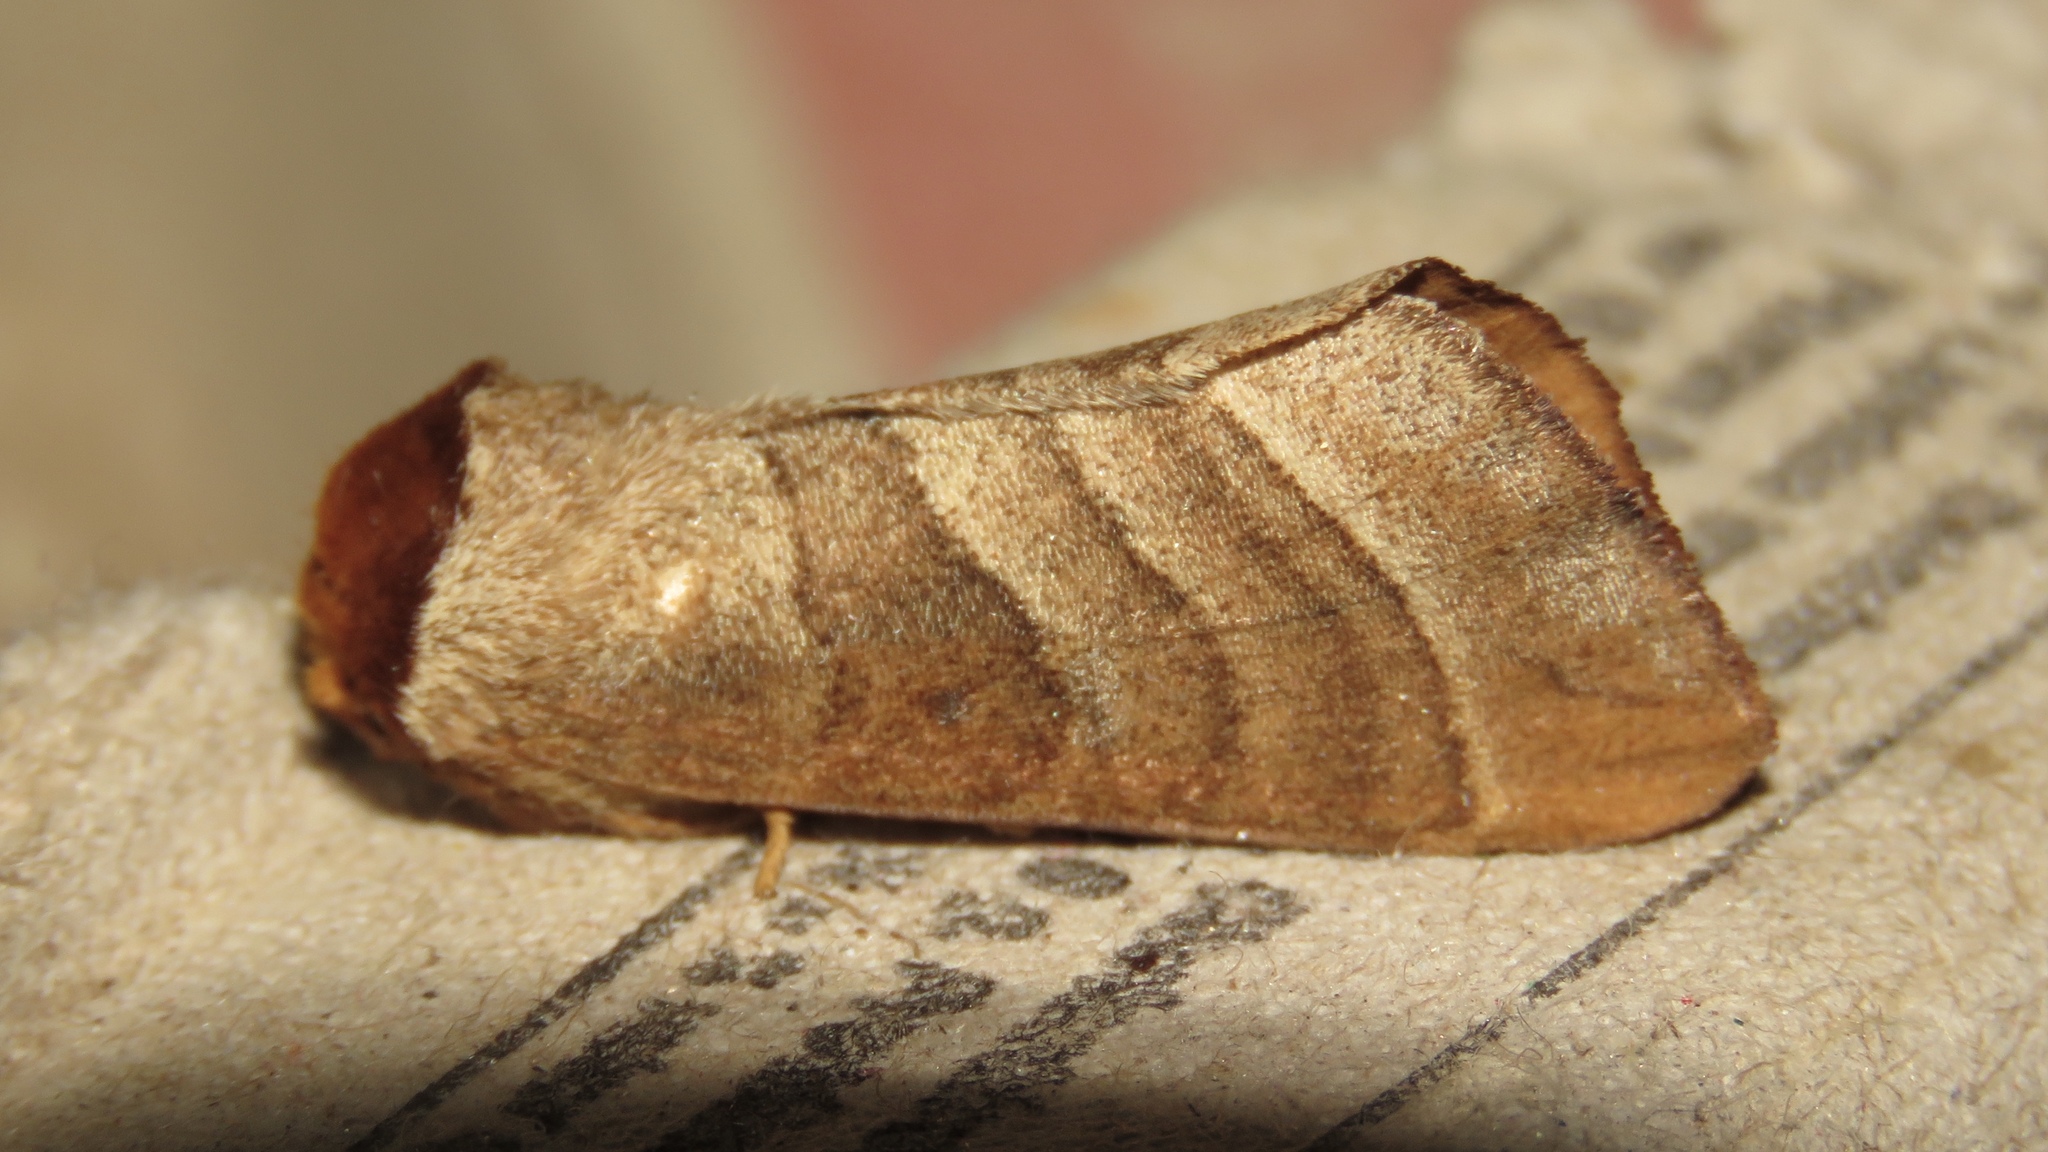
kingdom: Animalia
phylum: Arthropoda
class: Insecta
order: Lepidoptera
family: Notodontidae
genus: Datana
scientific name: Datana integerrima
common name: Walnut caterpillar
